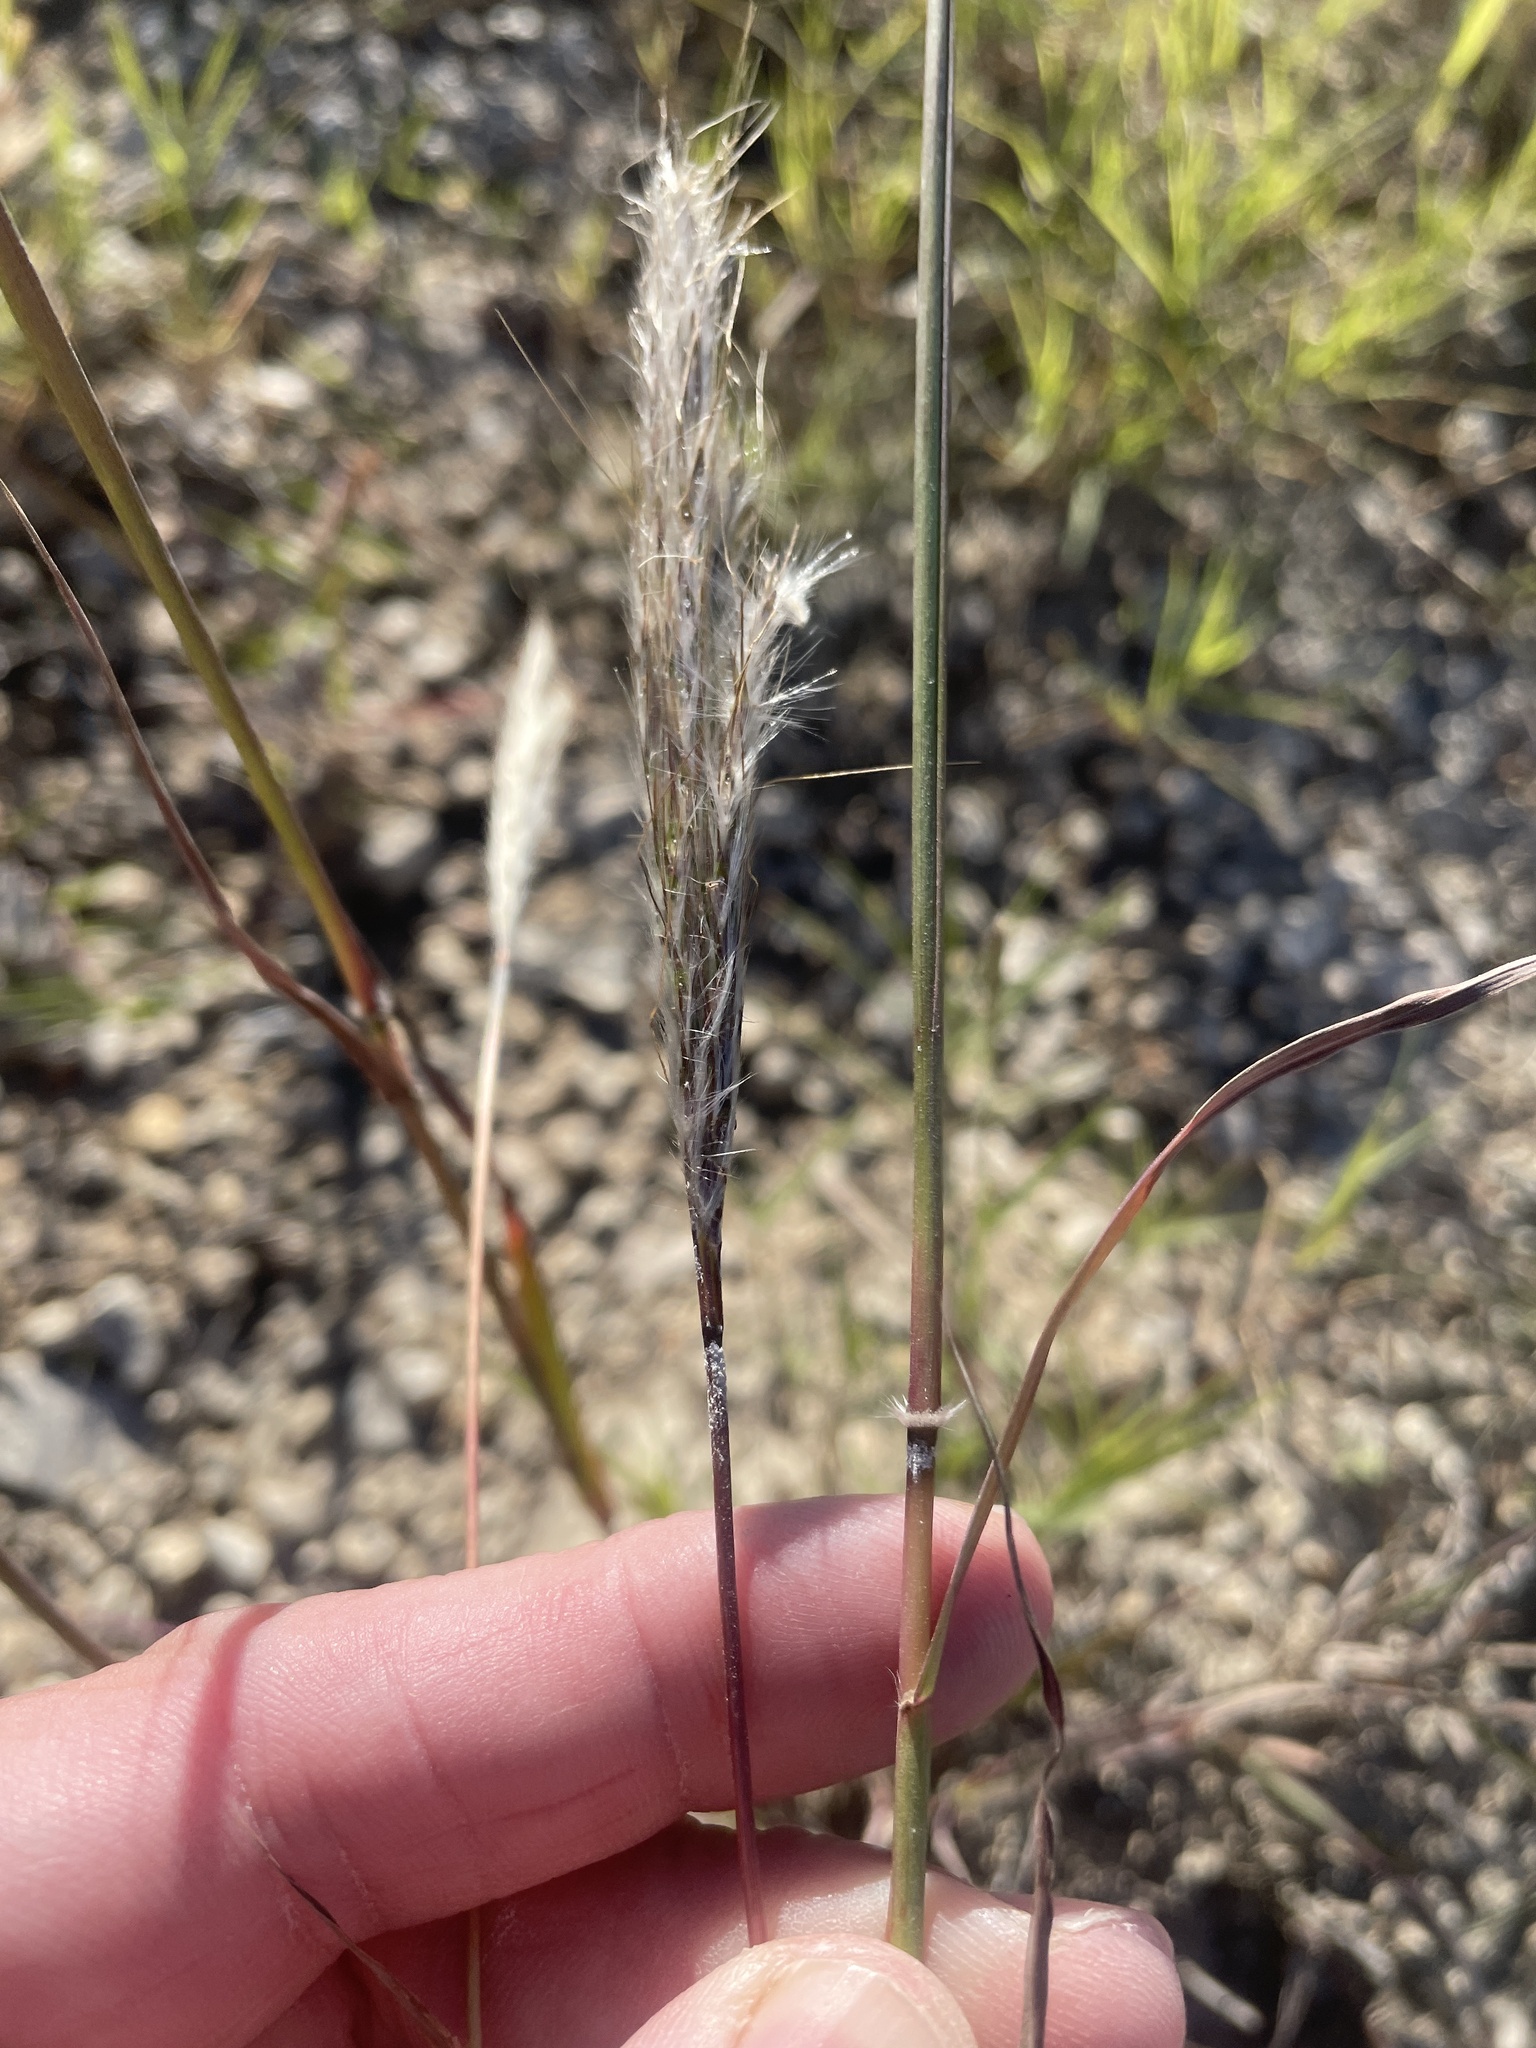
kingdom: Plantae
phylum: Tracheophyta
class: Liliopsida
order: Poales
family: Poaceae
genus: Bothriochloa
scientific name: Bothriochloa barbinodis
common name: Cane bluestem
